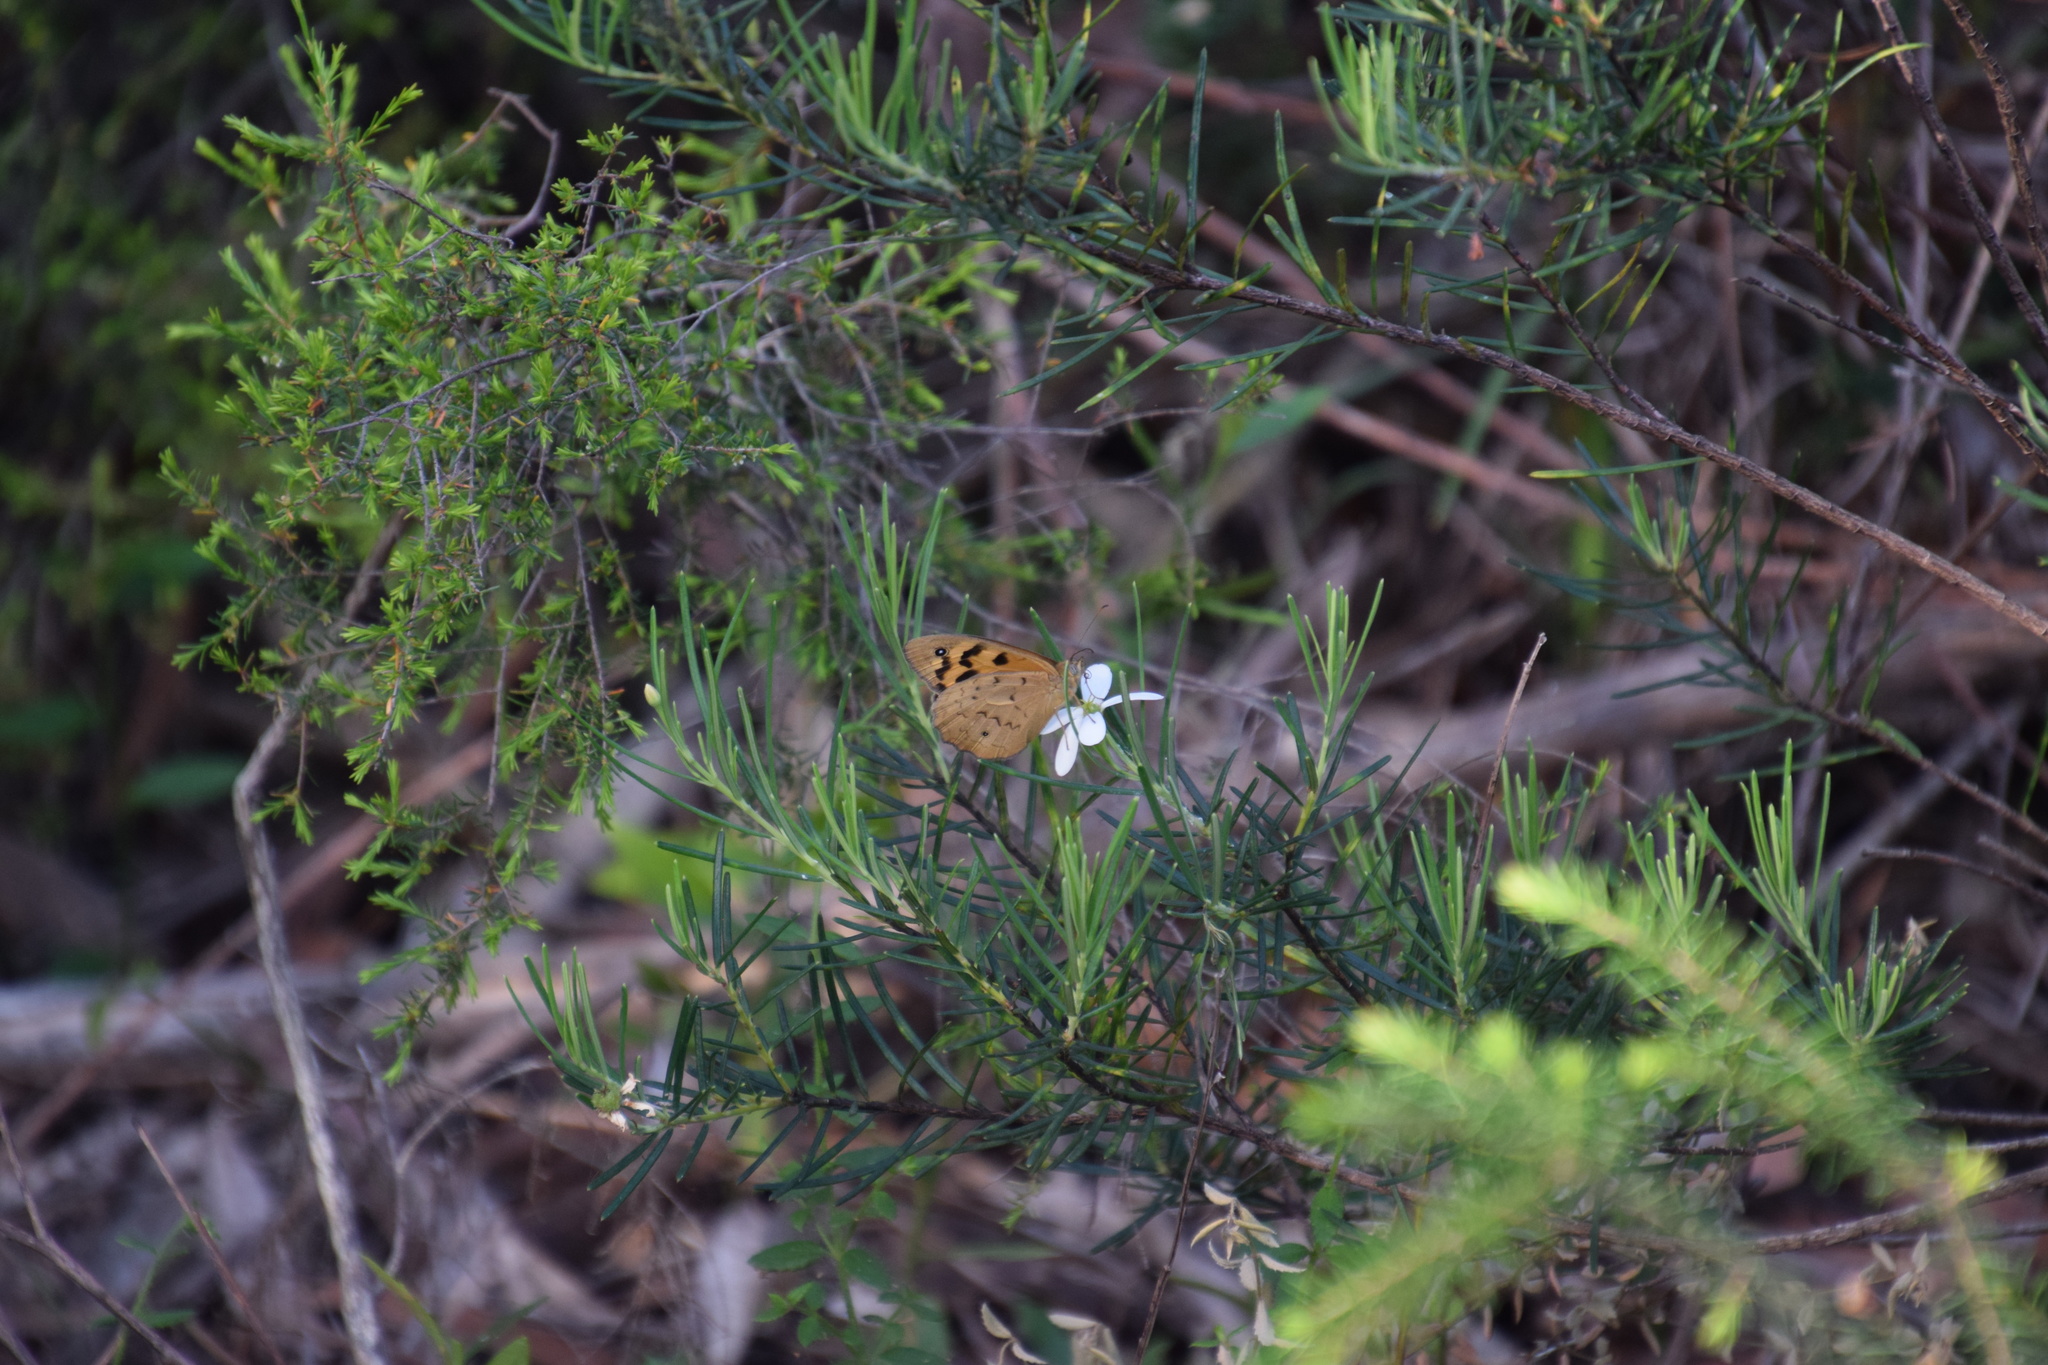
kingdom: Animalia
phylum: Arthropoda
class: Insecta
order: Lepidoptera
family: Nymphalidae
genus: Heteronympha
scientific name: Heteronympha merope
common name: Common brown
